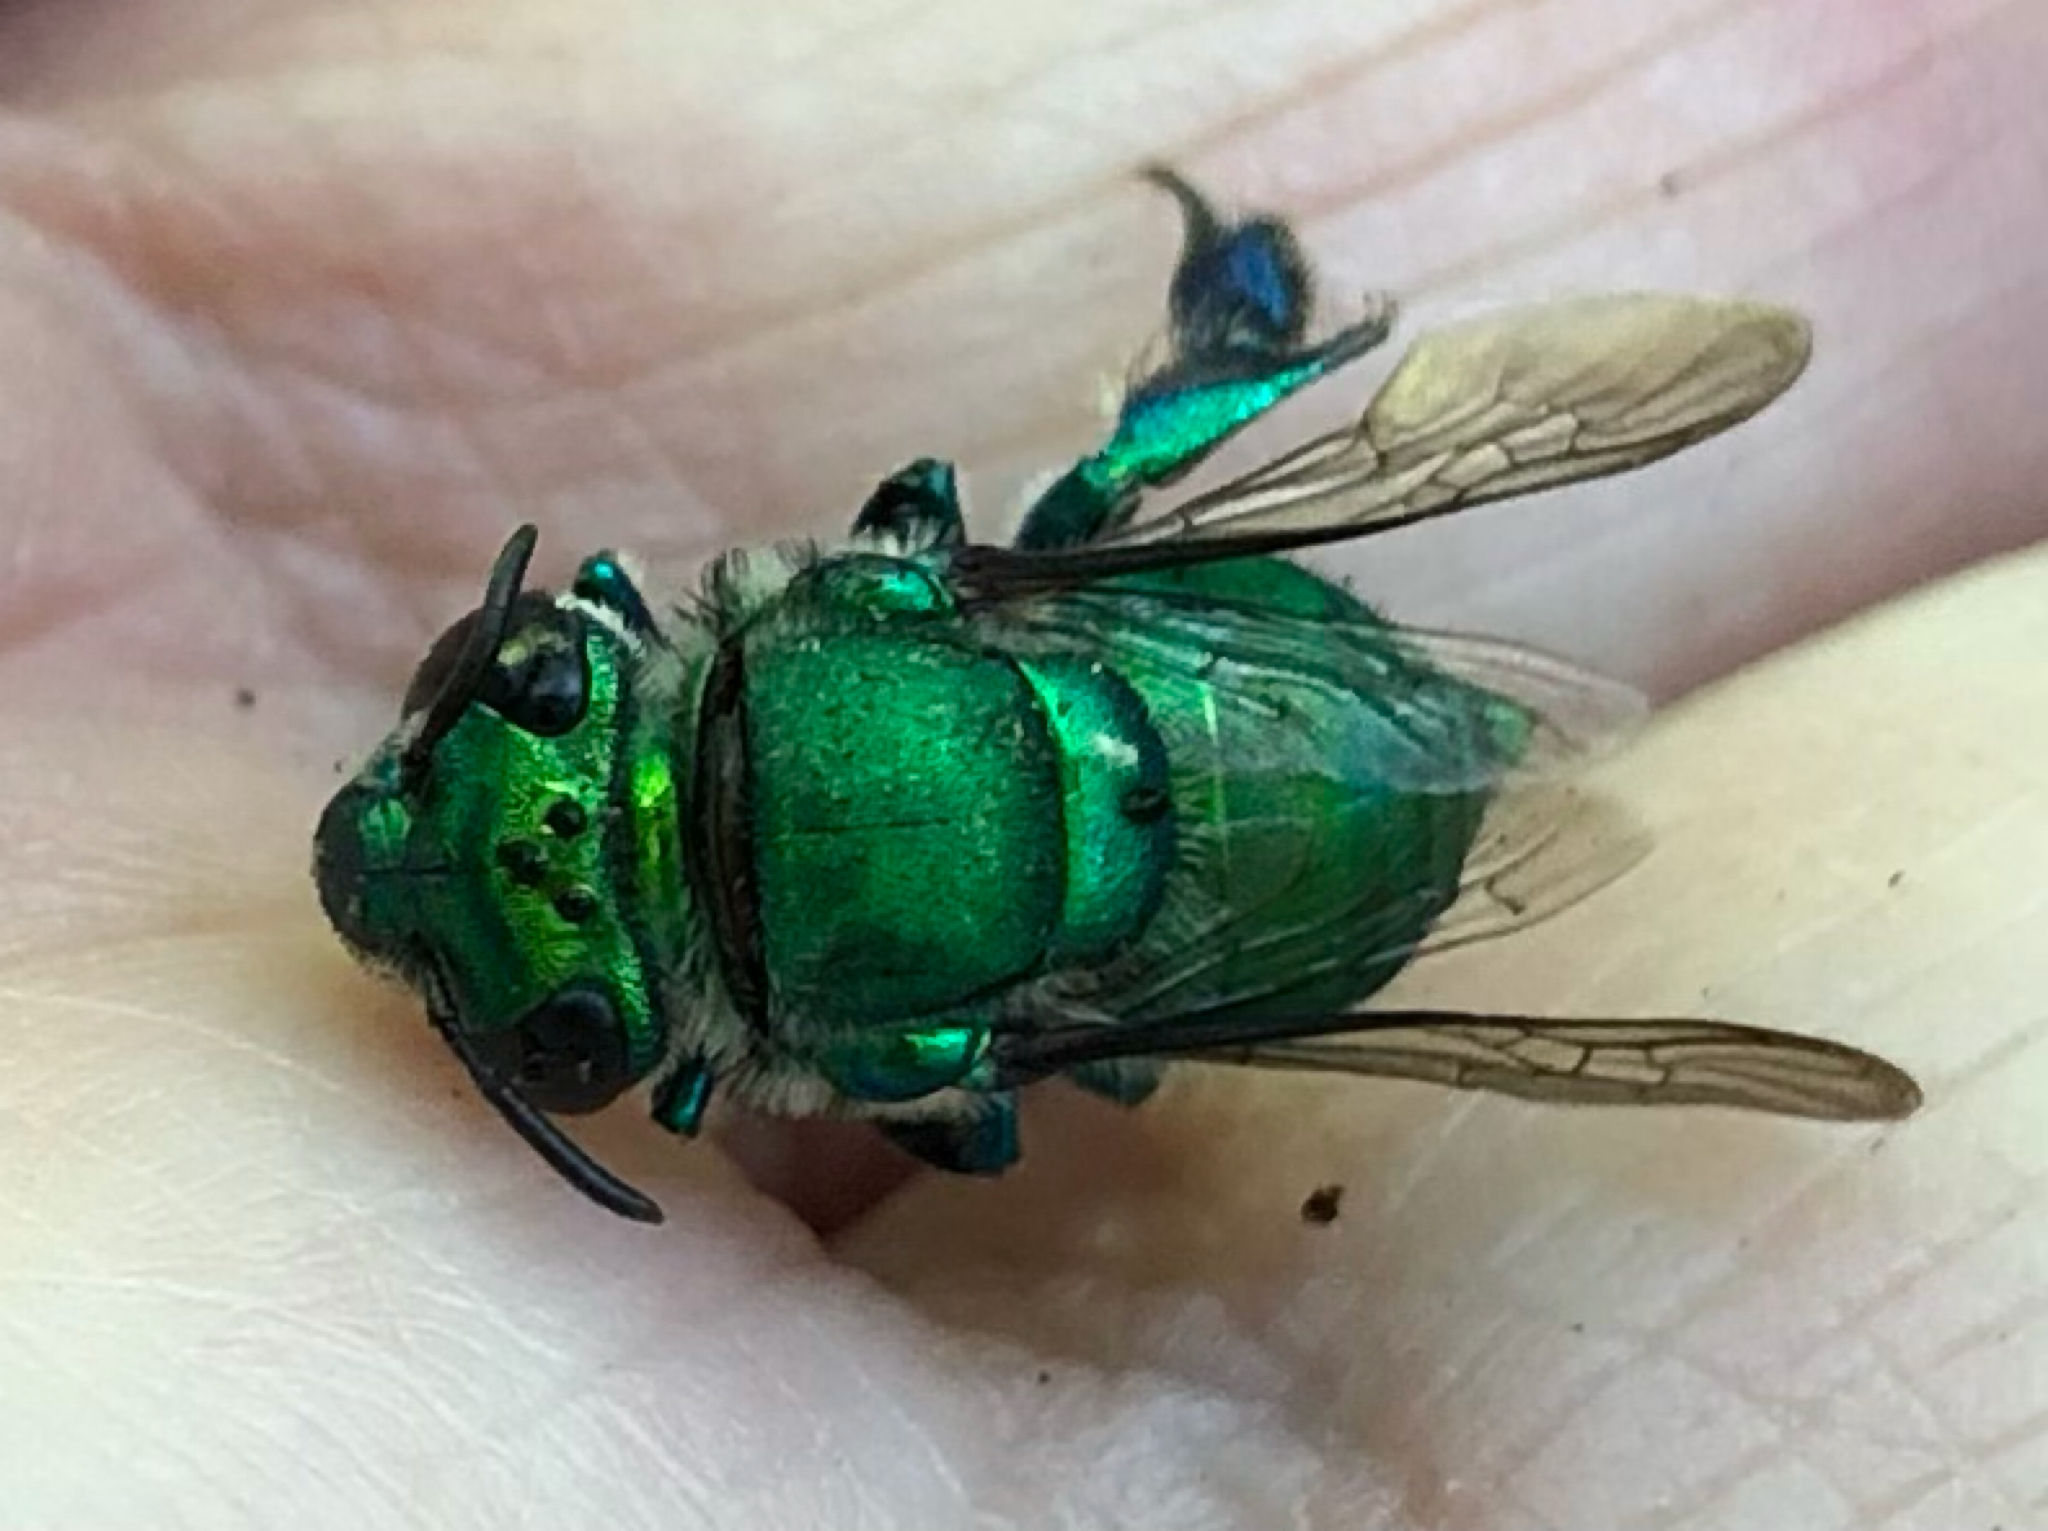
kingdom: Animalia
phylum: Arthropoda
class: Insecta
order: Hymenoptera
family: Apidae
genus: Euglossa
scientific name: Euglossa dilemma
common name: Green orchid bee
